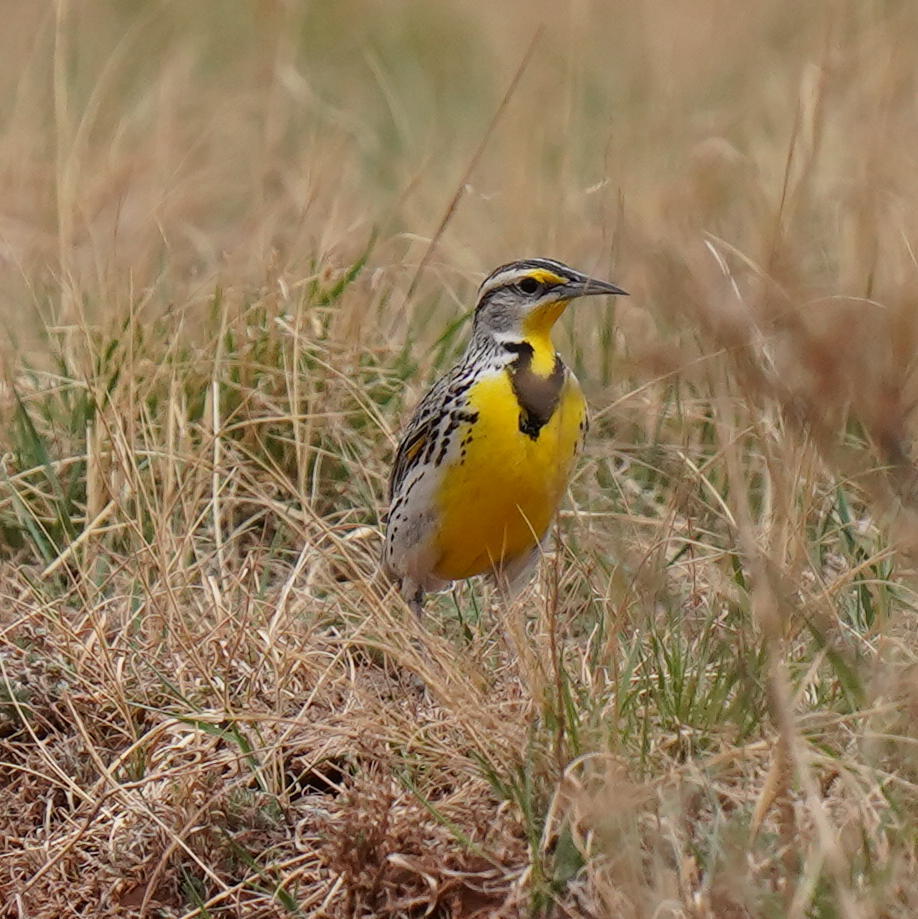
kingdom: Animalia
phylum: Chordata
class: Aves
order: Passeriformes
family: Icteridae
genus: Sturnella
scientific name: Sturnella neglecta
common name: Western meadowlark
